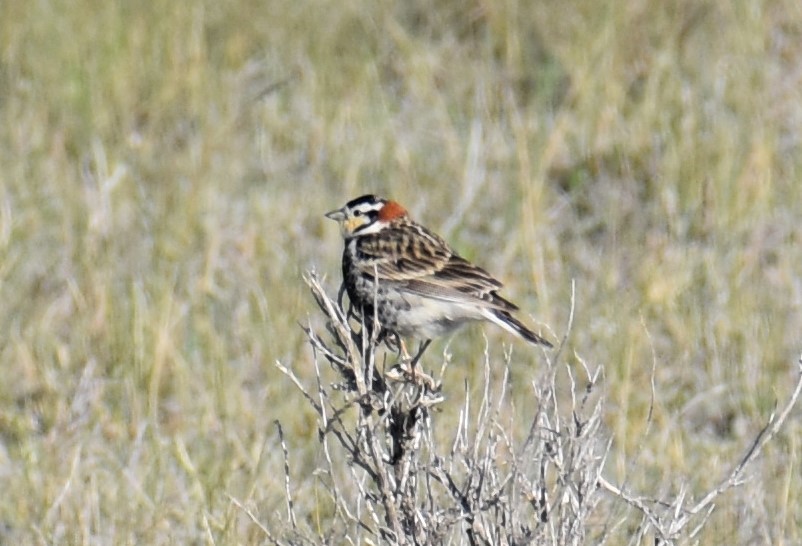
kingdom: Animalia
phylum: Chordata
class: Aves
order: Passeriformes
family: Calcariidae
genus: Calcarius
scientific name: Calcarius ornatus
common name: Chestnut-collared longspur
